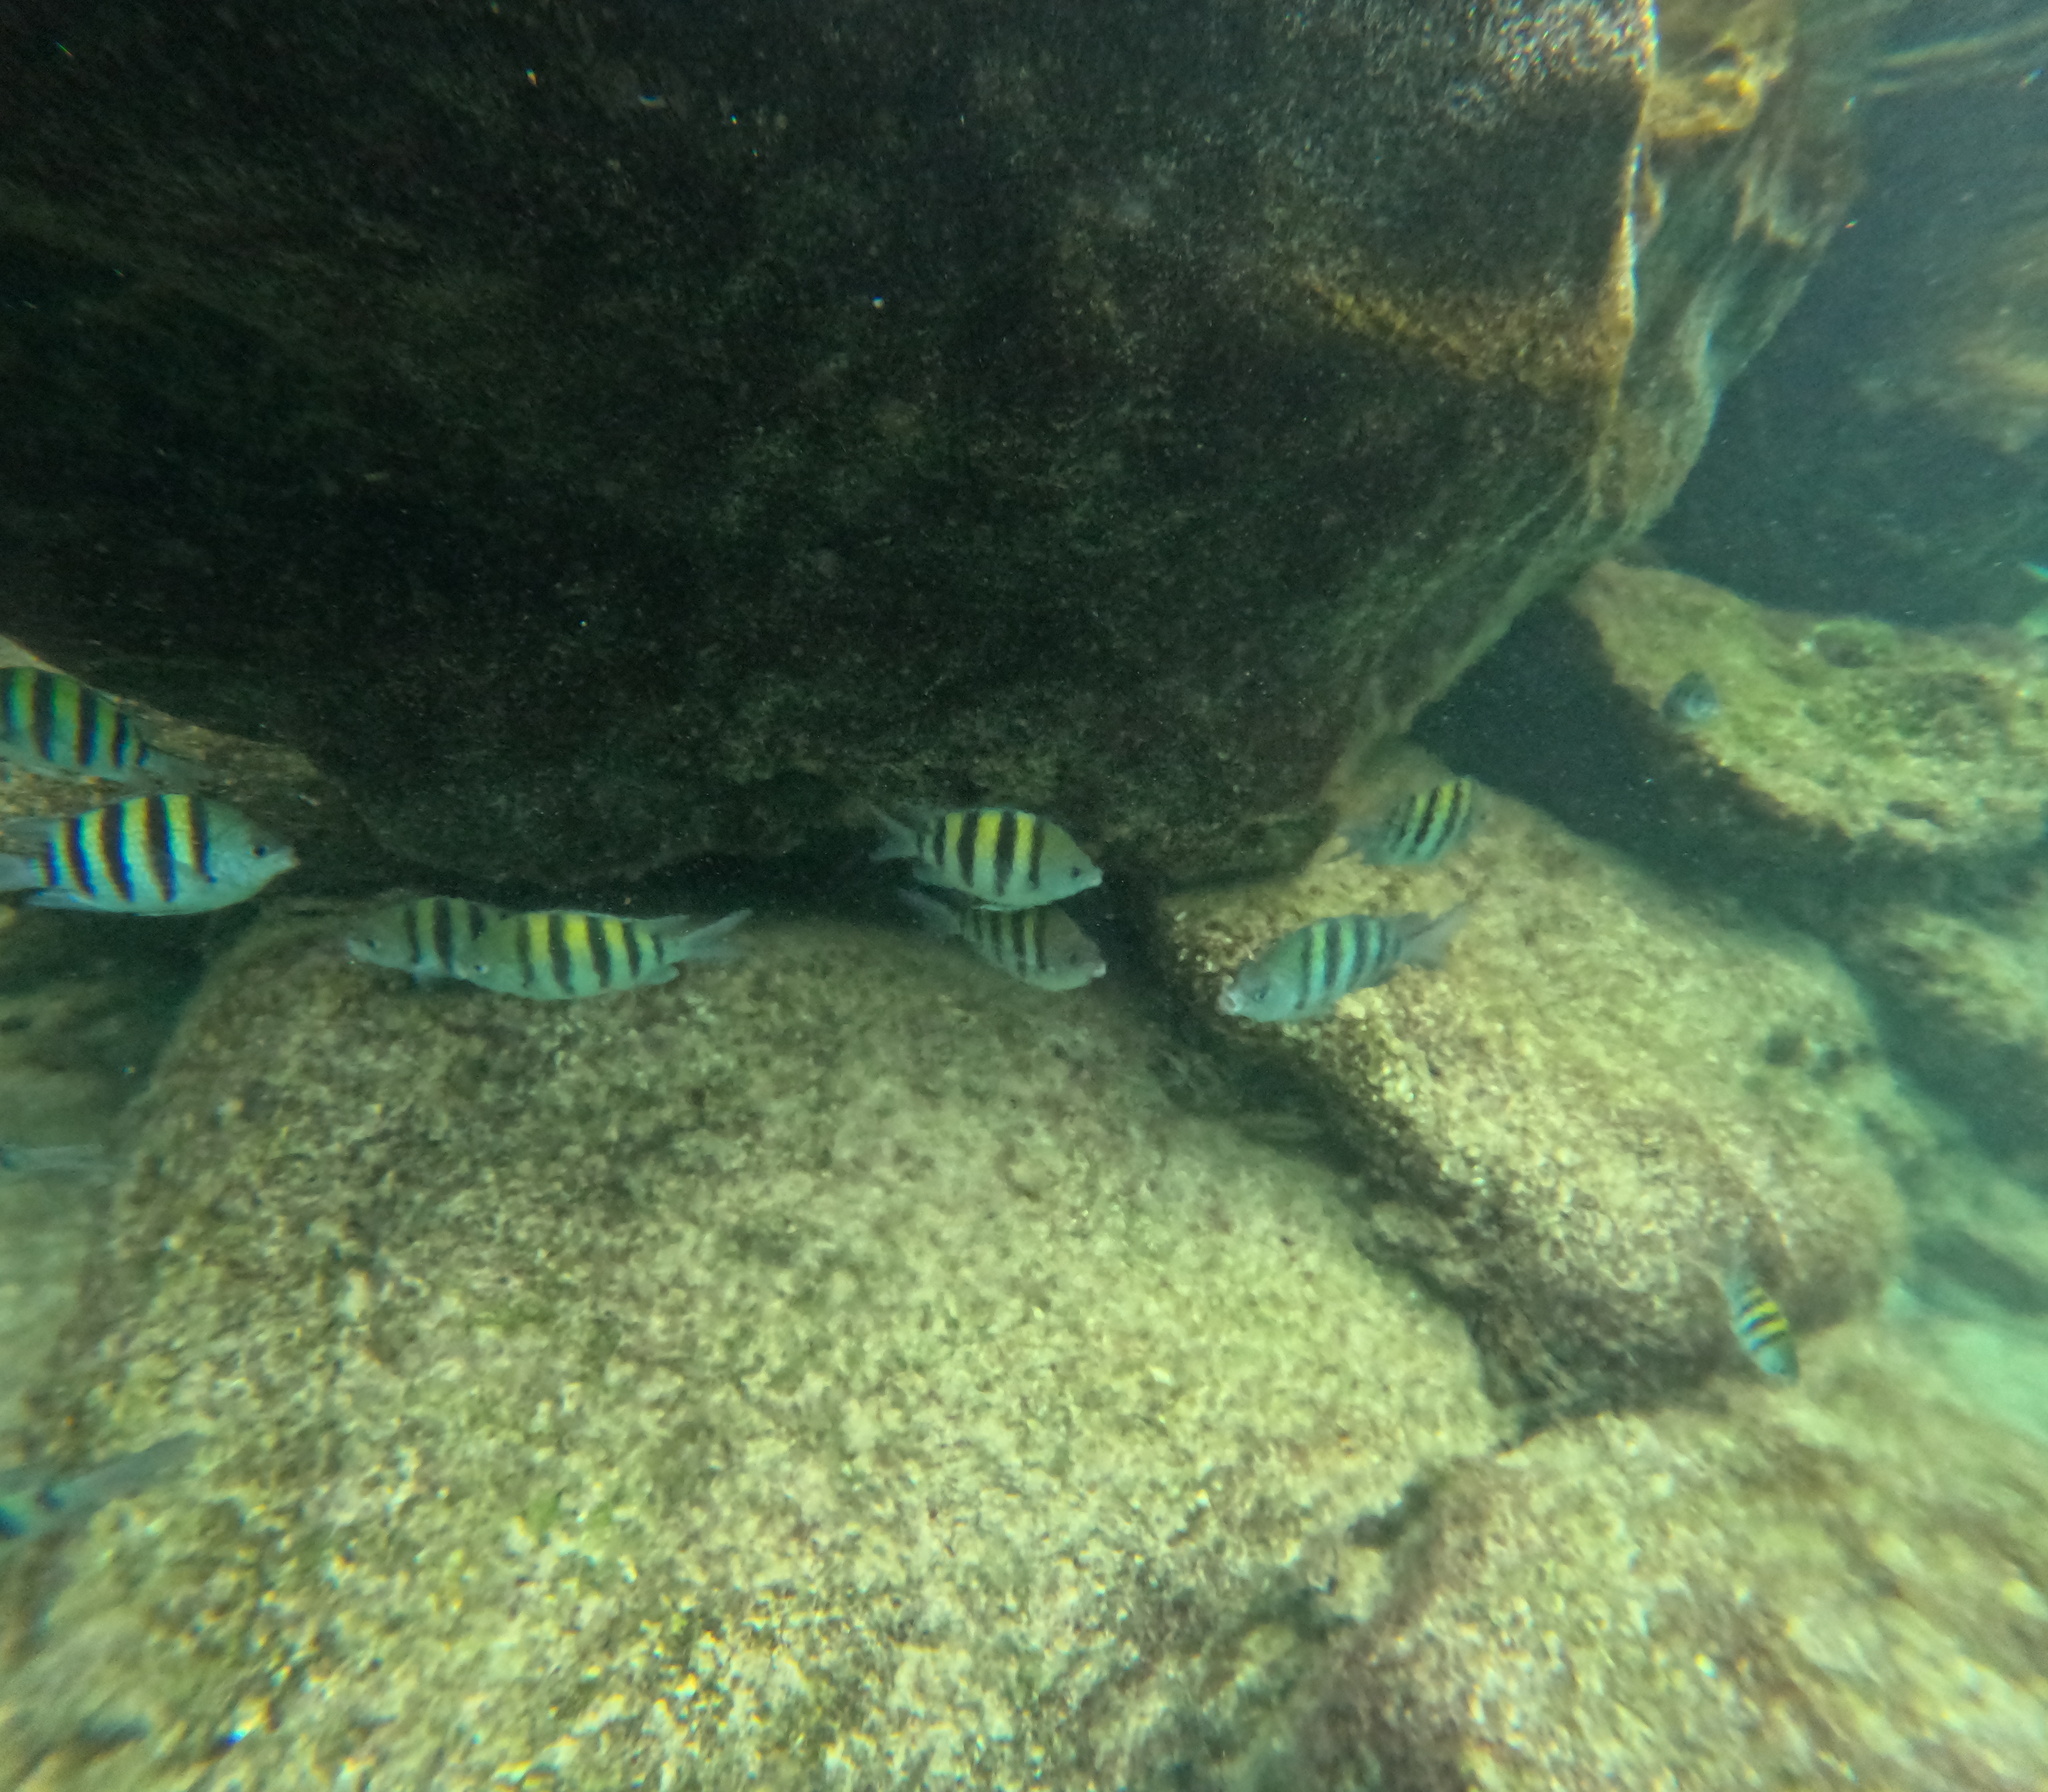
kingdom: Animalia
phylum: Chordata
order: Perciformes
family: Pomacentridae
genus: Abudefduf
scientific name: Abudefduf saxatilis
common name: Sergeant major
